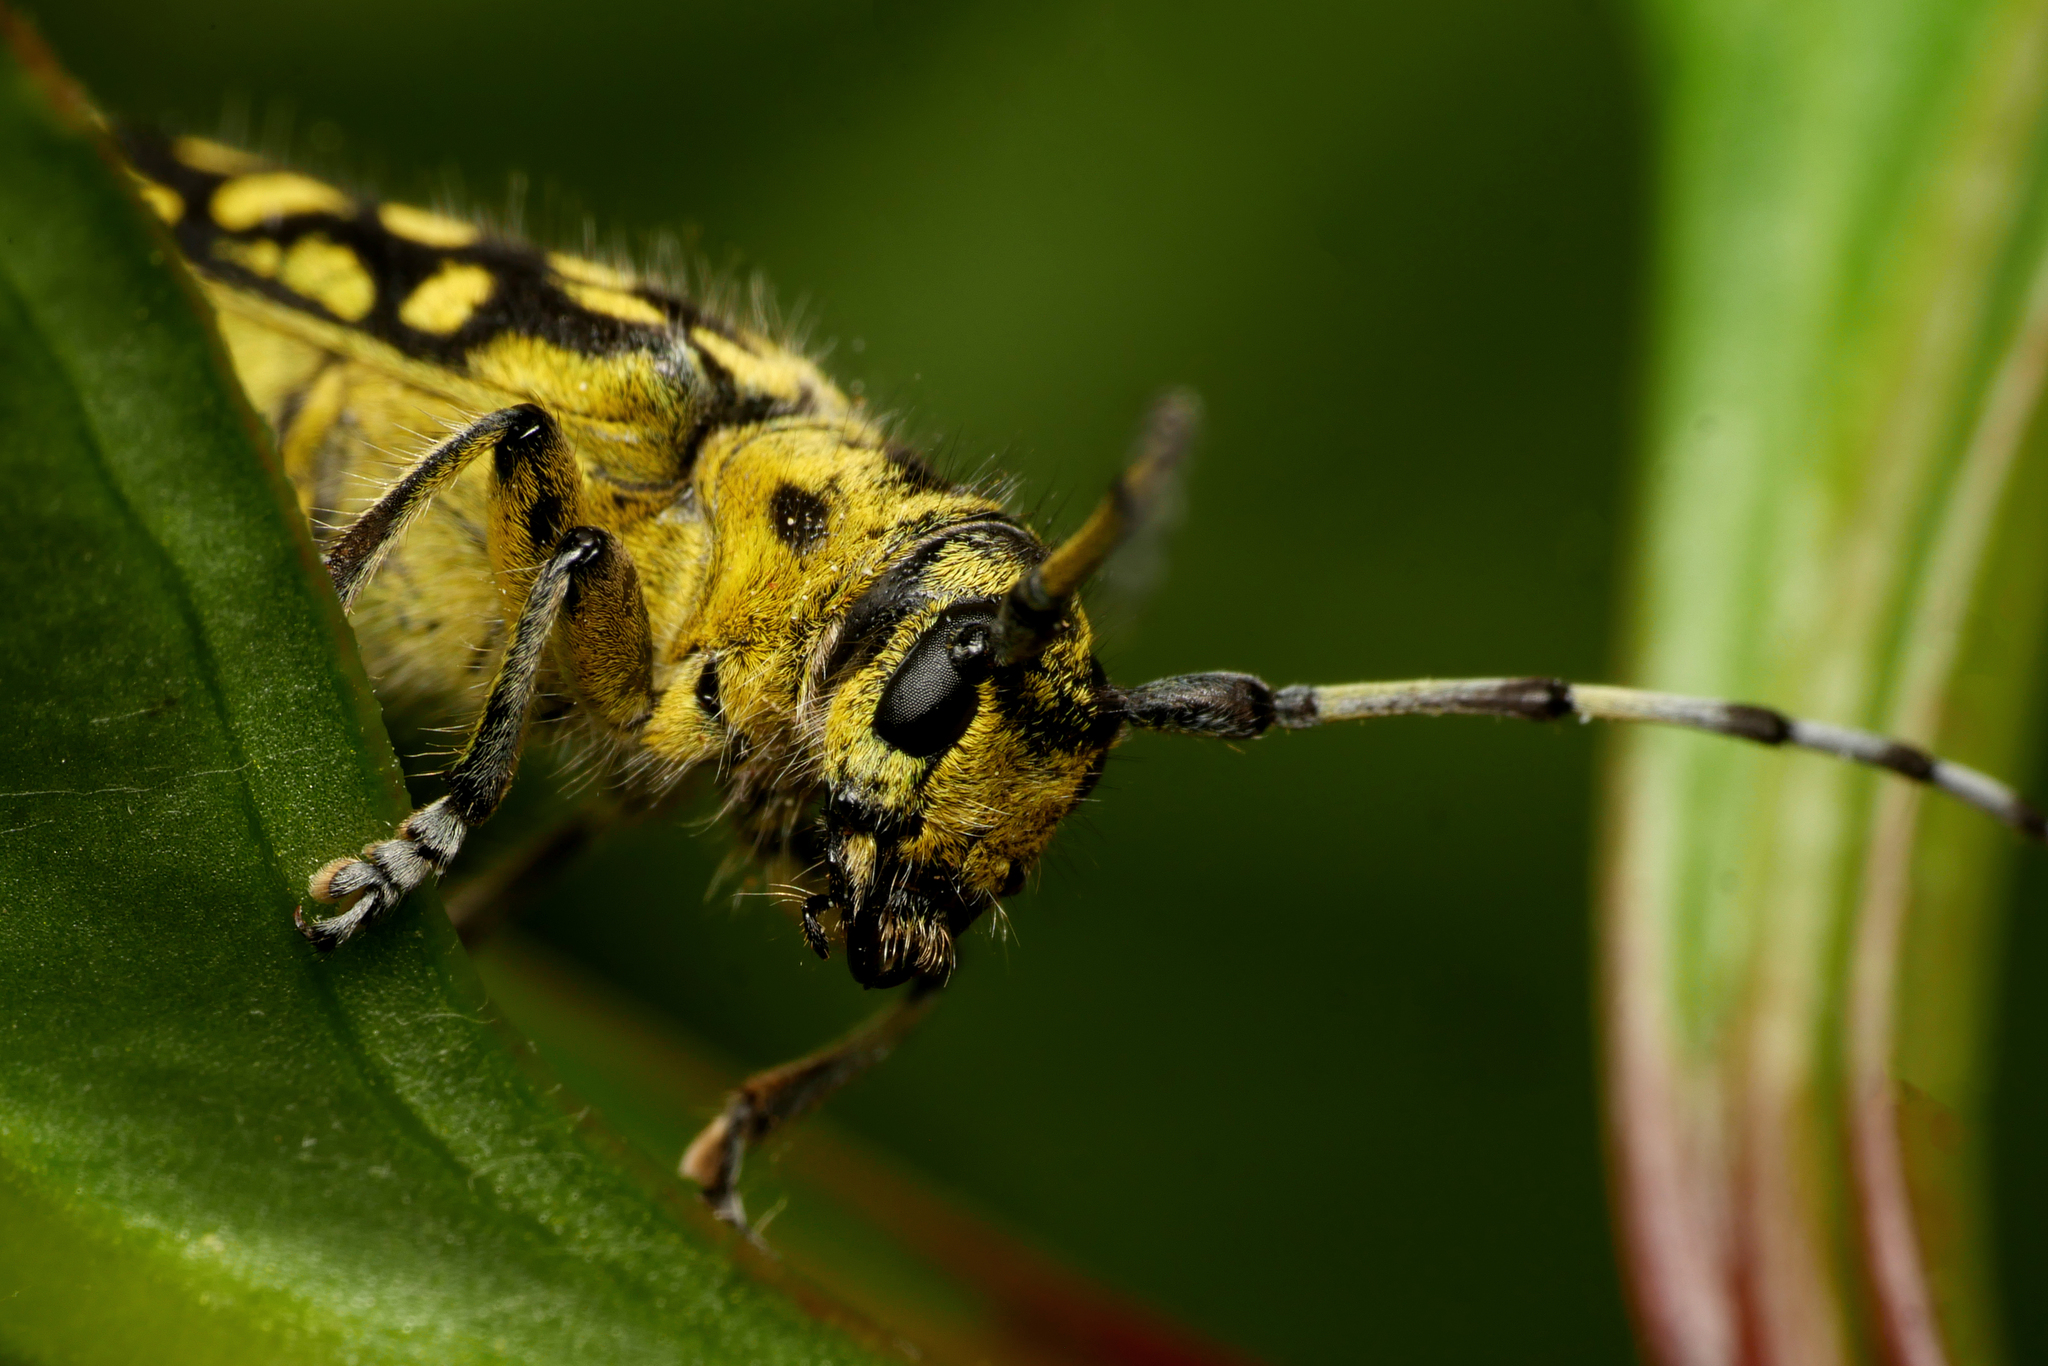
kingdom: Animalia
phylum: Arthropoda
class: Insecta
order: Coleoptera
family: Cerambycidae
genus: Saperda
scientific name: Saperda scalaris
